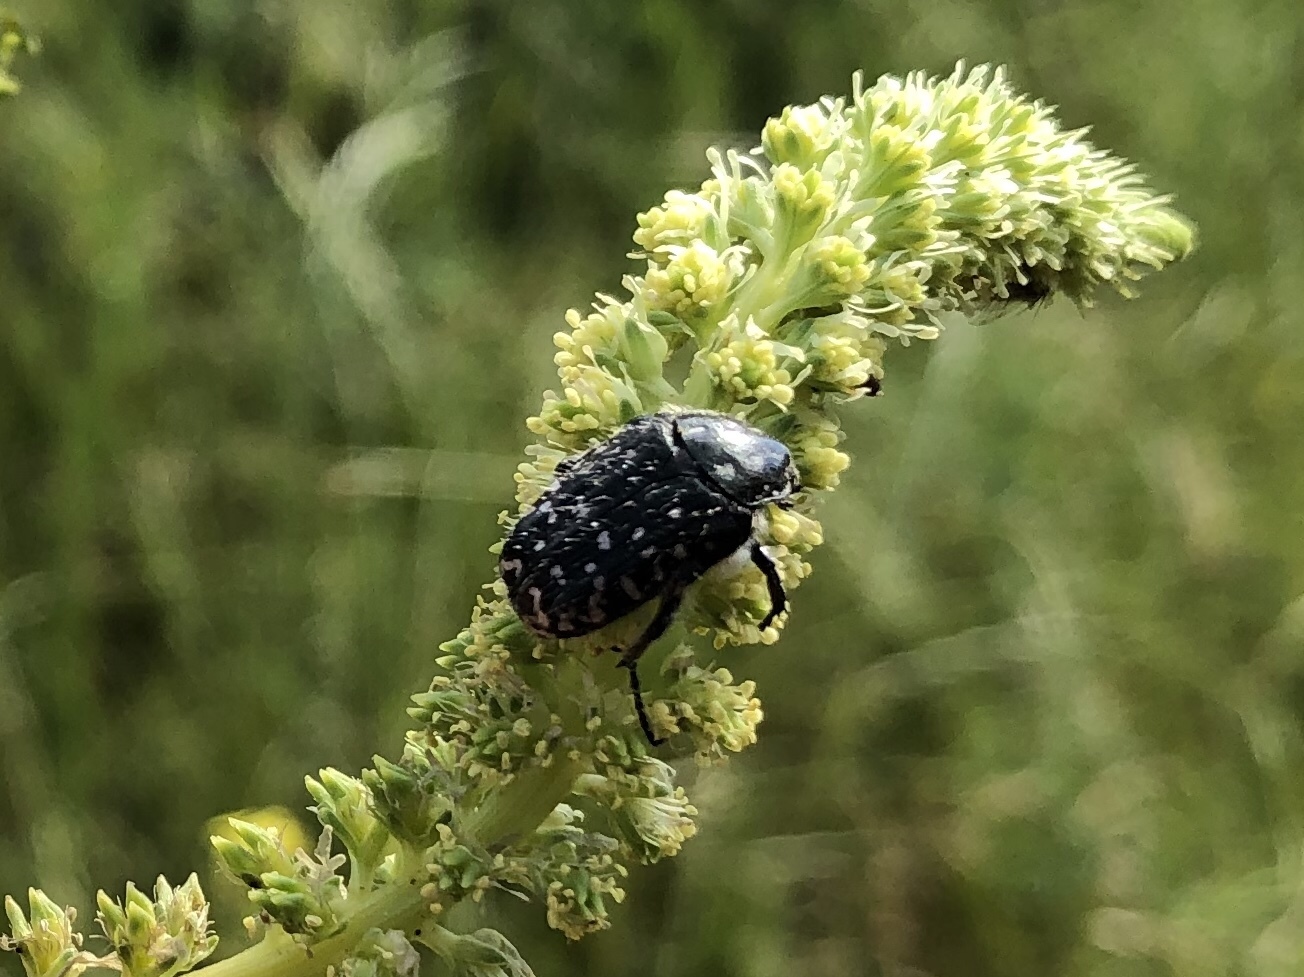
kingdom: Animalia
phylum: Arthropoda
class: Insecta
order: Coleoptera
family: Scarabaeidae
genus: Oxythyrea
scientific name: Oxythyrea funesta
